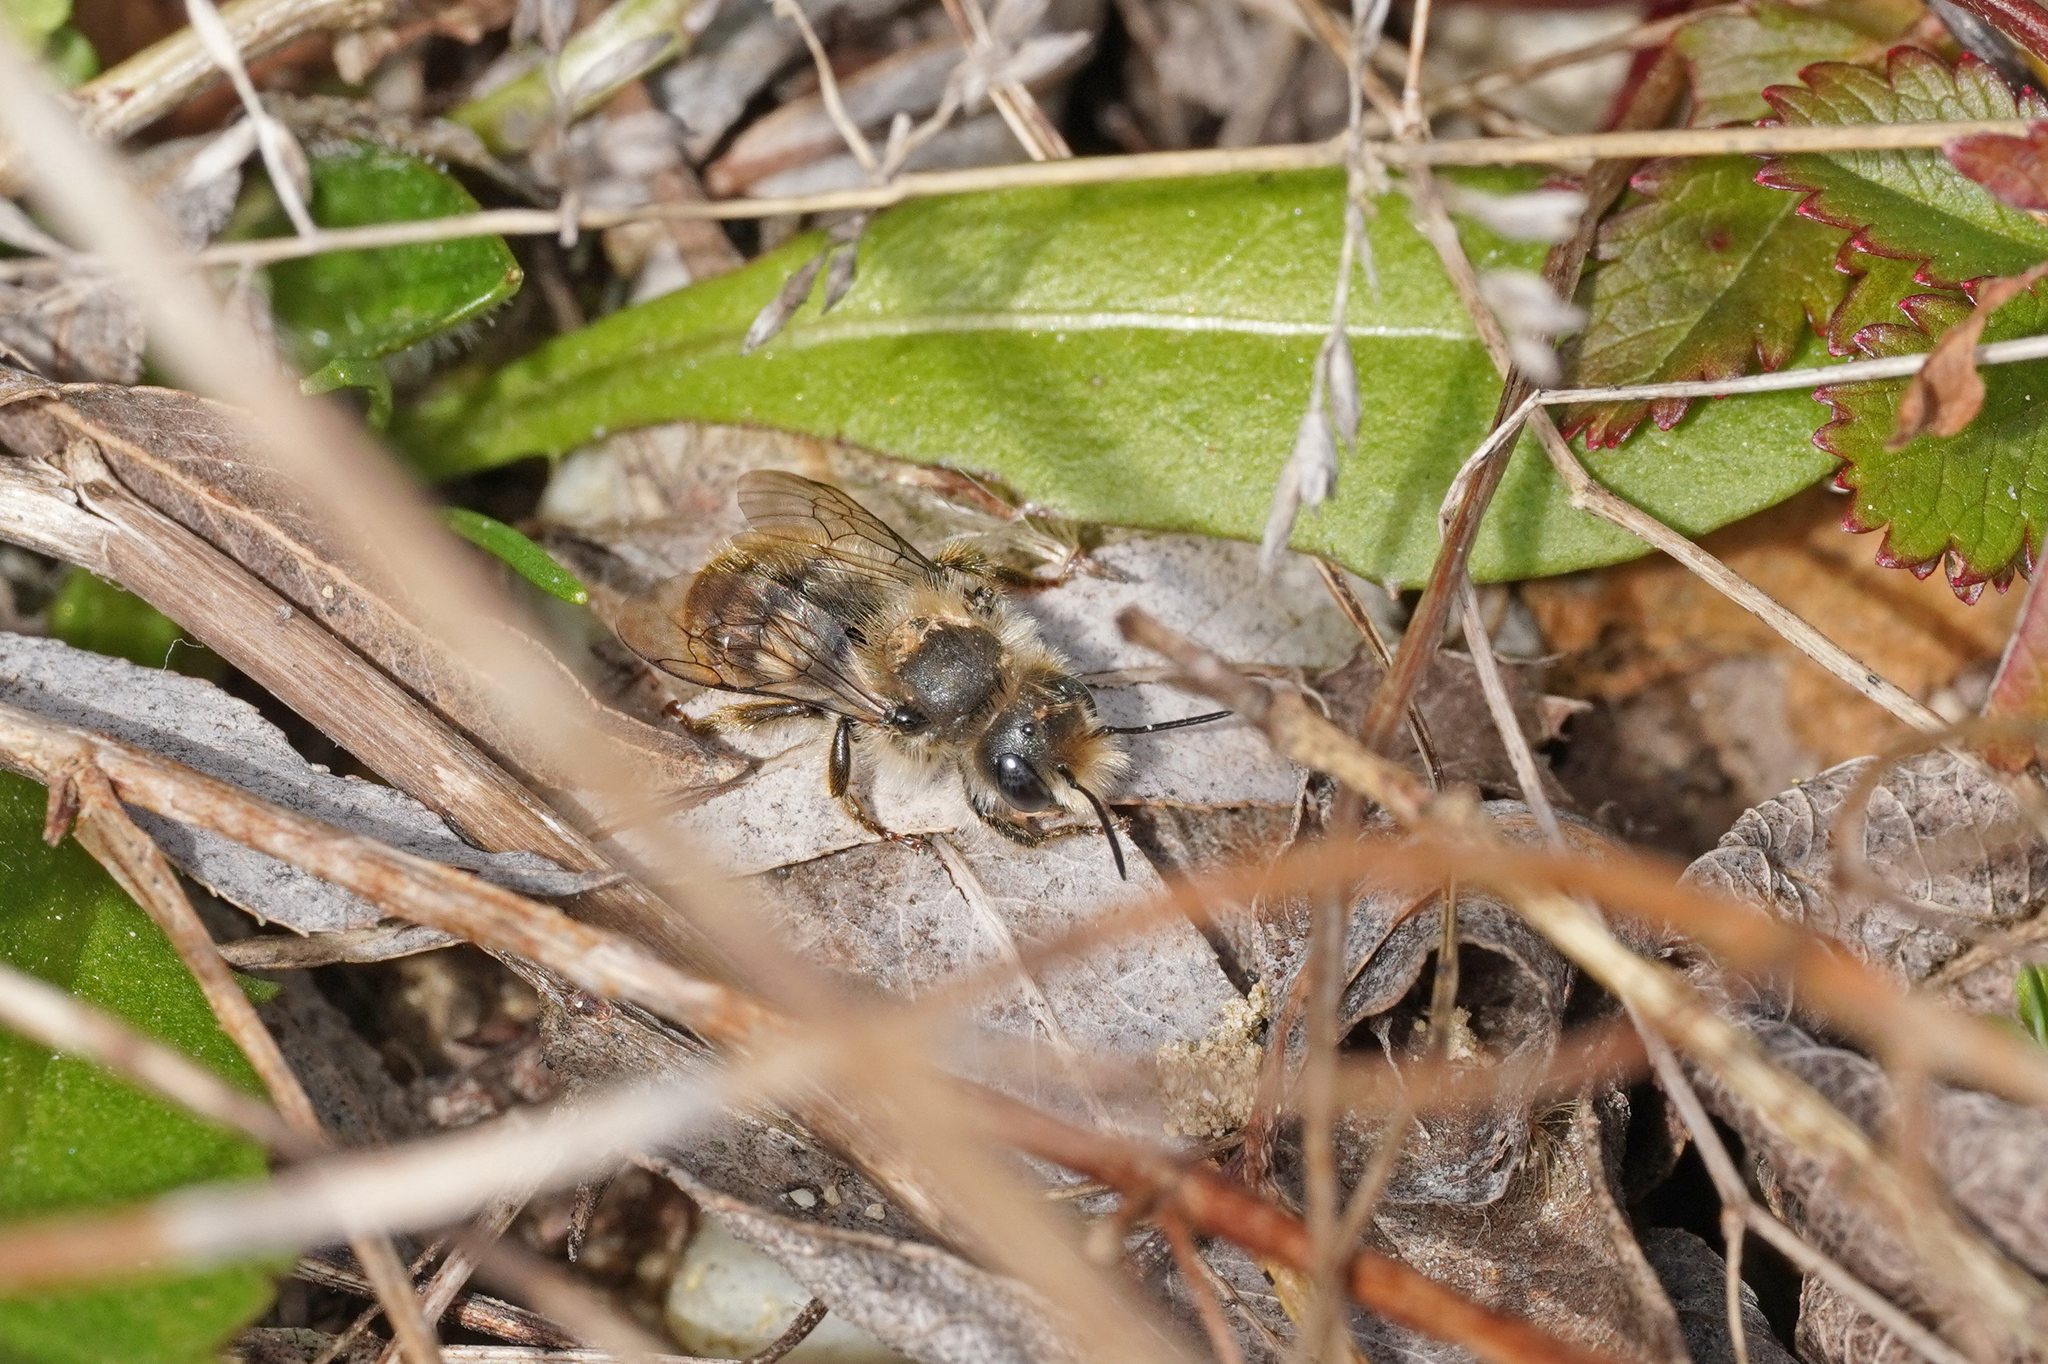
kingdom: Animalia
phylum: Arthropoda
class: Insecta
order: Hymenoptera
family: Megachilidae
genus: Osmia
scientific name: Osmia aurulenta
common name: Gold-fringed mason bee
